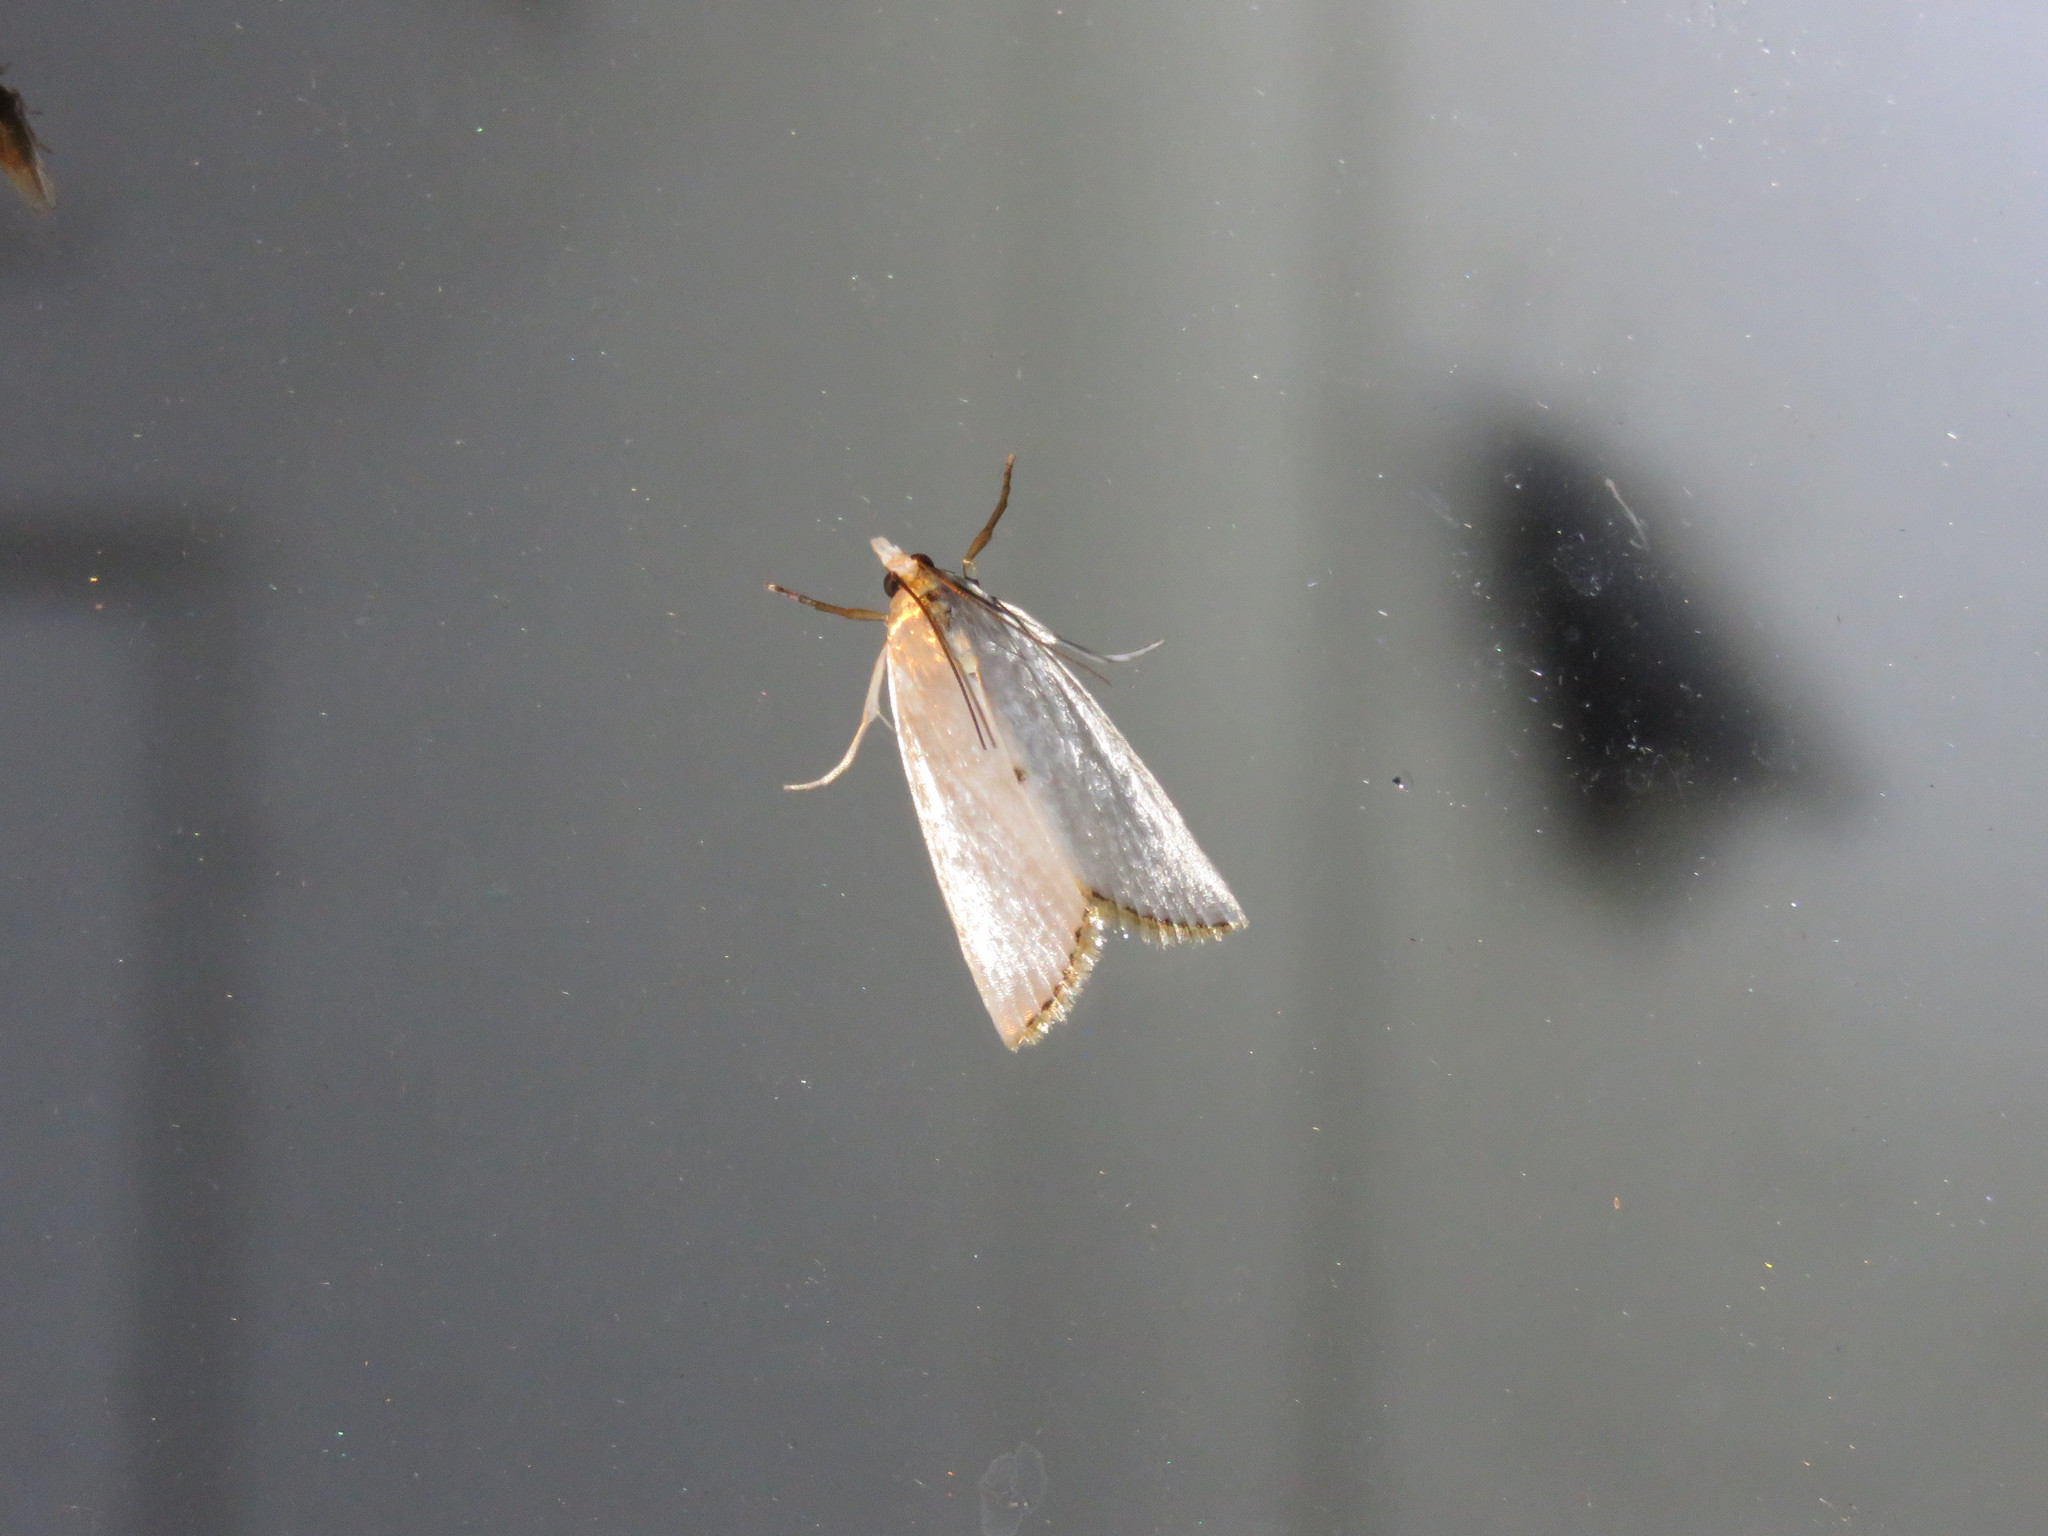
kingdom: Animalia
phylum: Arthropoda
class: Insecta
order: Lepidoptera
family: Crambidae
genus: Argyria
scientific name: Argyria nivalis
